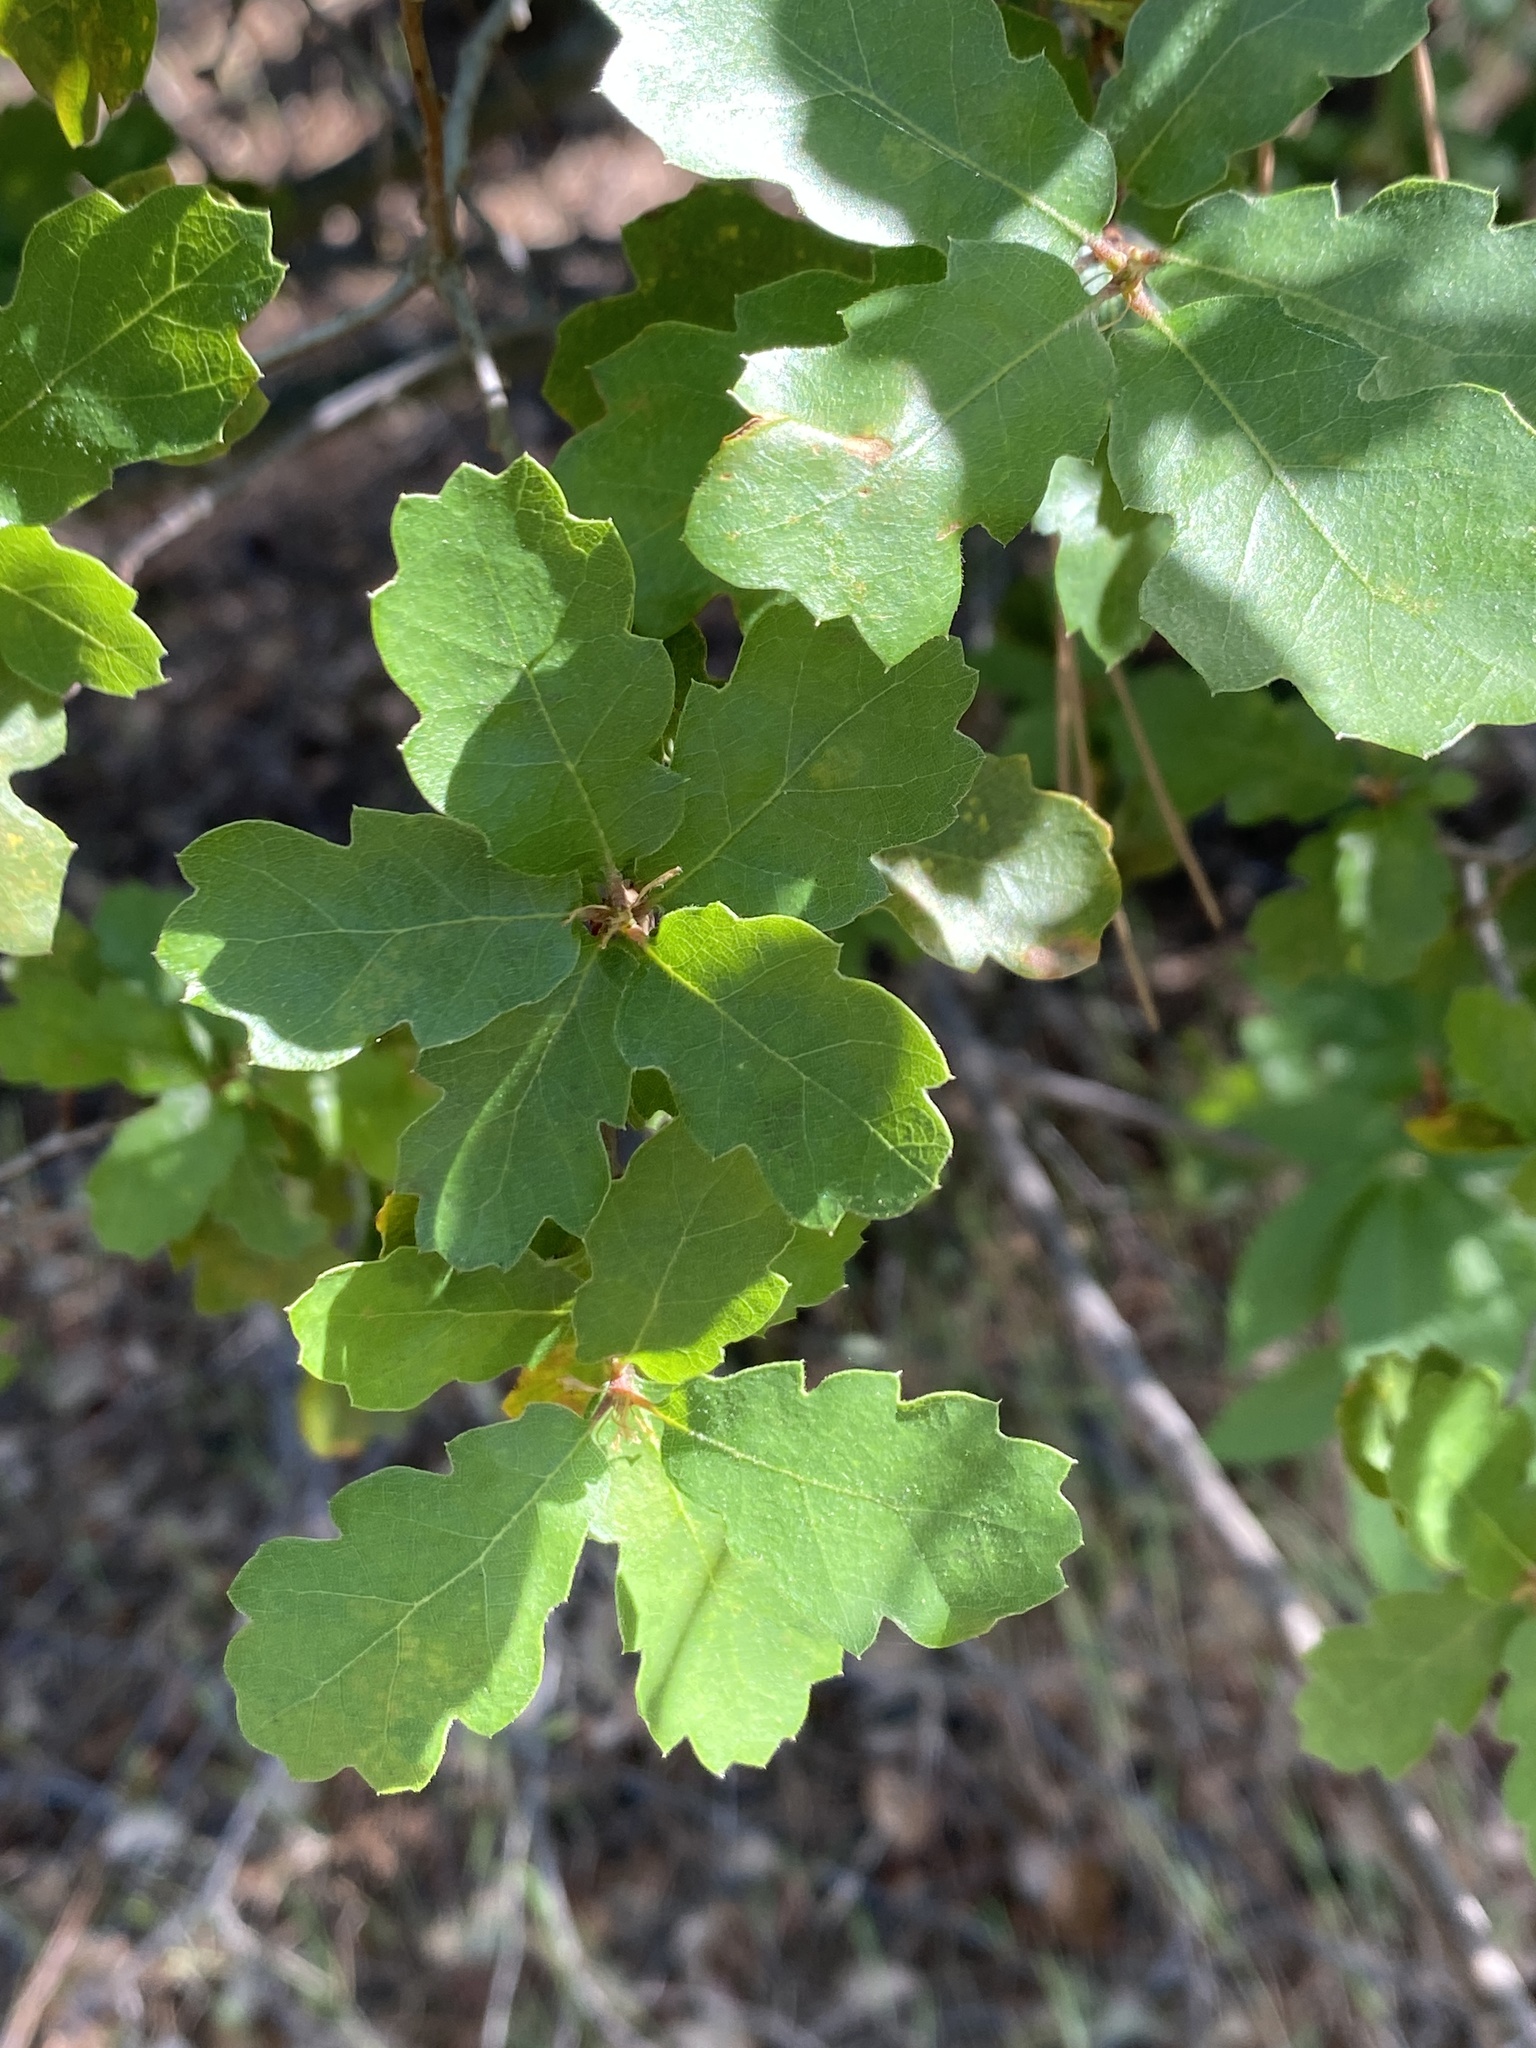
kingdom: Plantae
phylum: Tracheophyta
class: Magnoliopsida
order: Fagales
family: Fagaceae
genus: Quercus
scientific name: Quercus douglasii
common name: Blue oak
